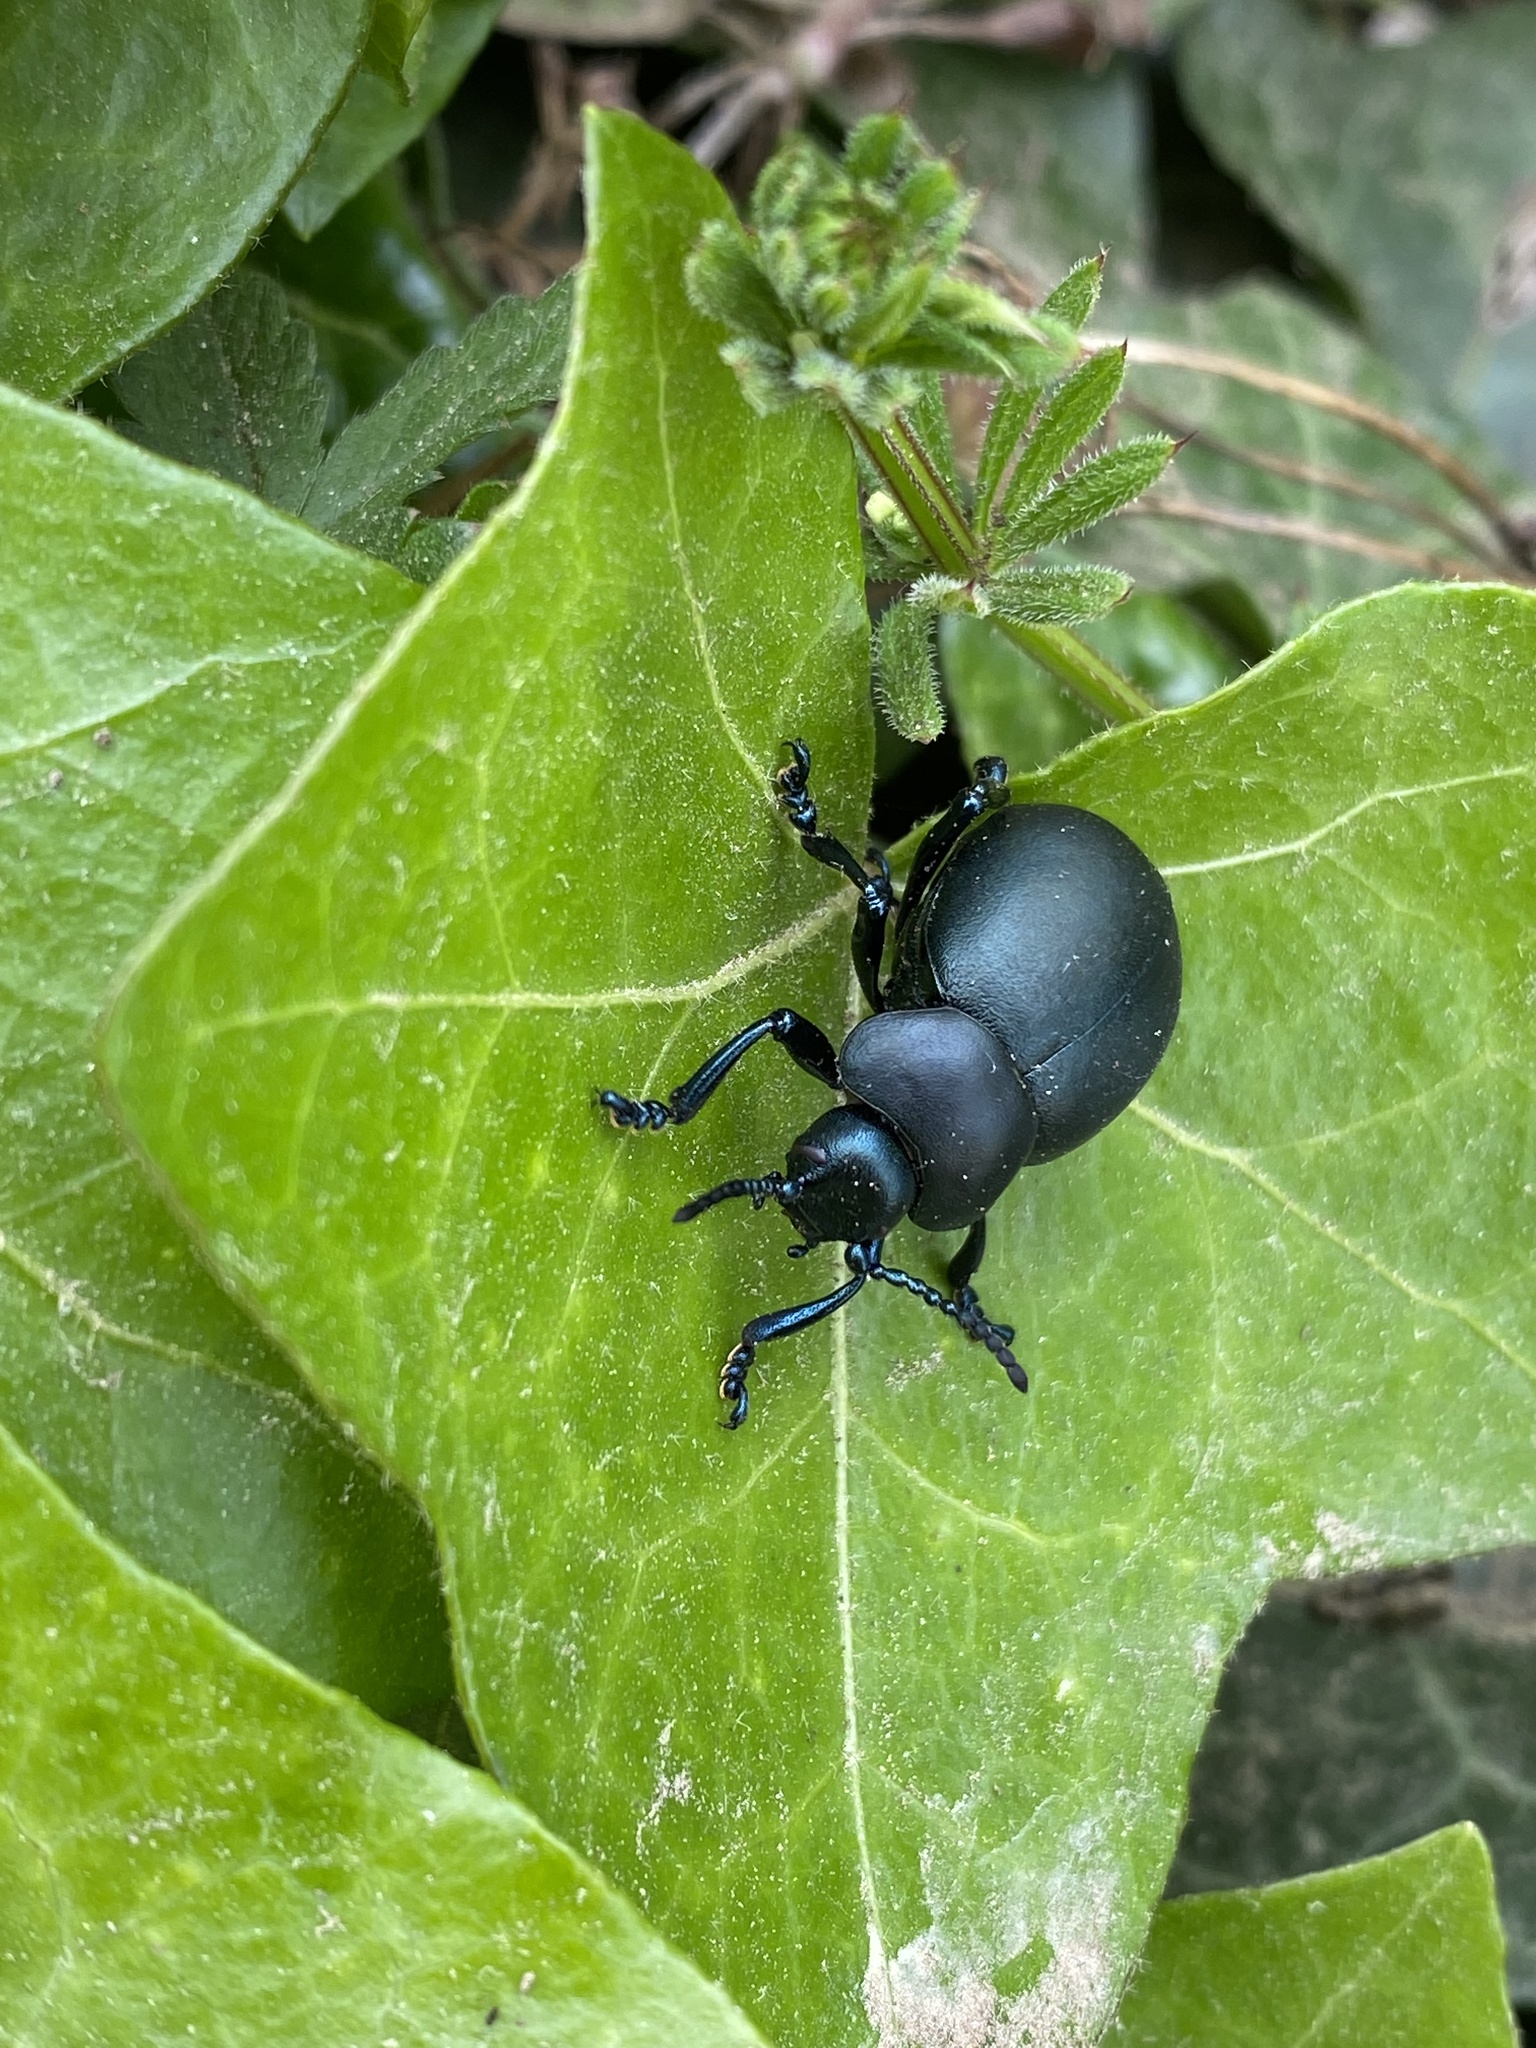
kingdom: Animalia
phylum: Arthropoda
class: Insecta
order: Coleoptera
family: Chrysomelidae
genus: Timarcha
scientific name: Timarcha tenebricosa
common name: Bloody-nosed beetle
